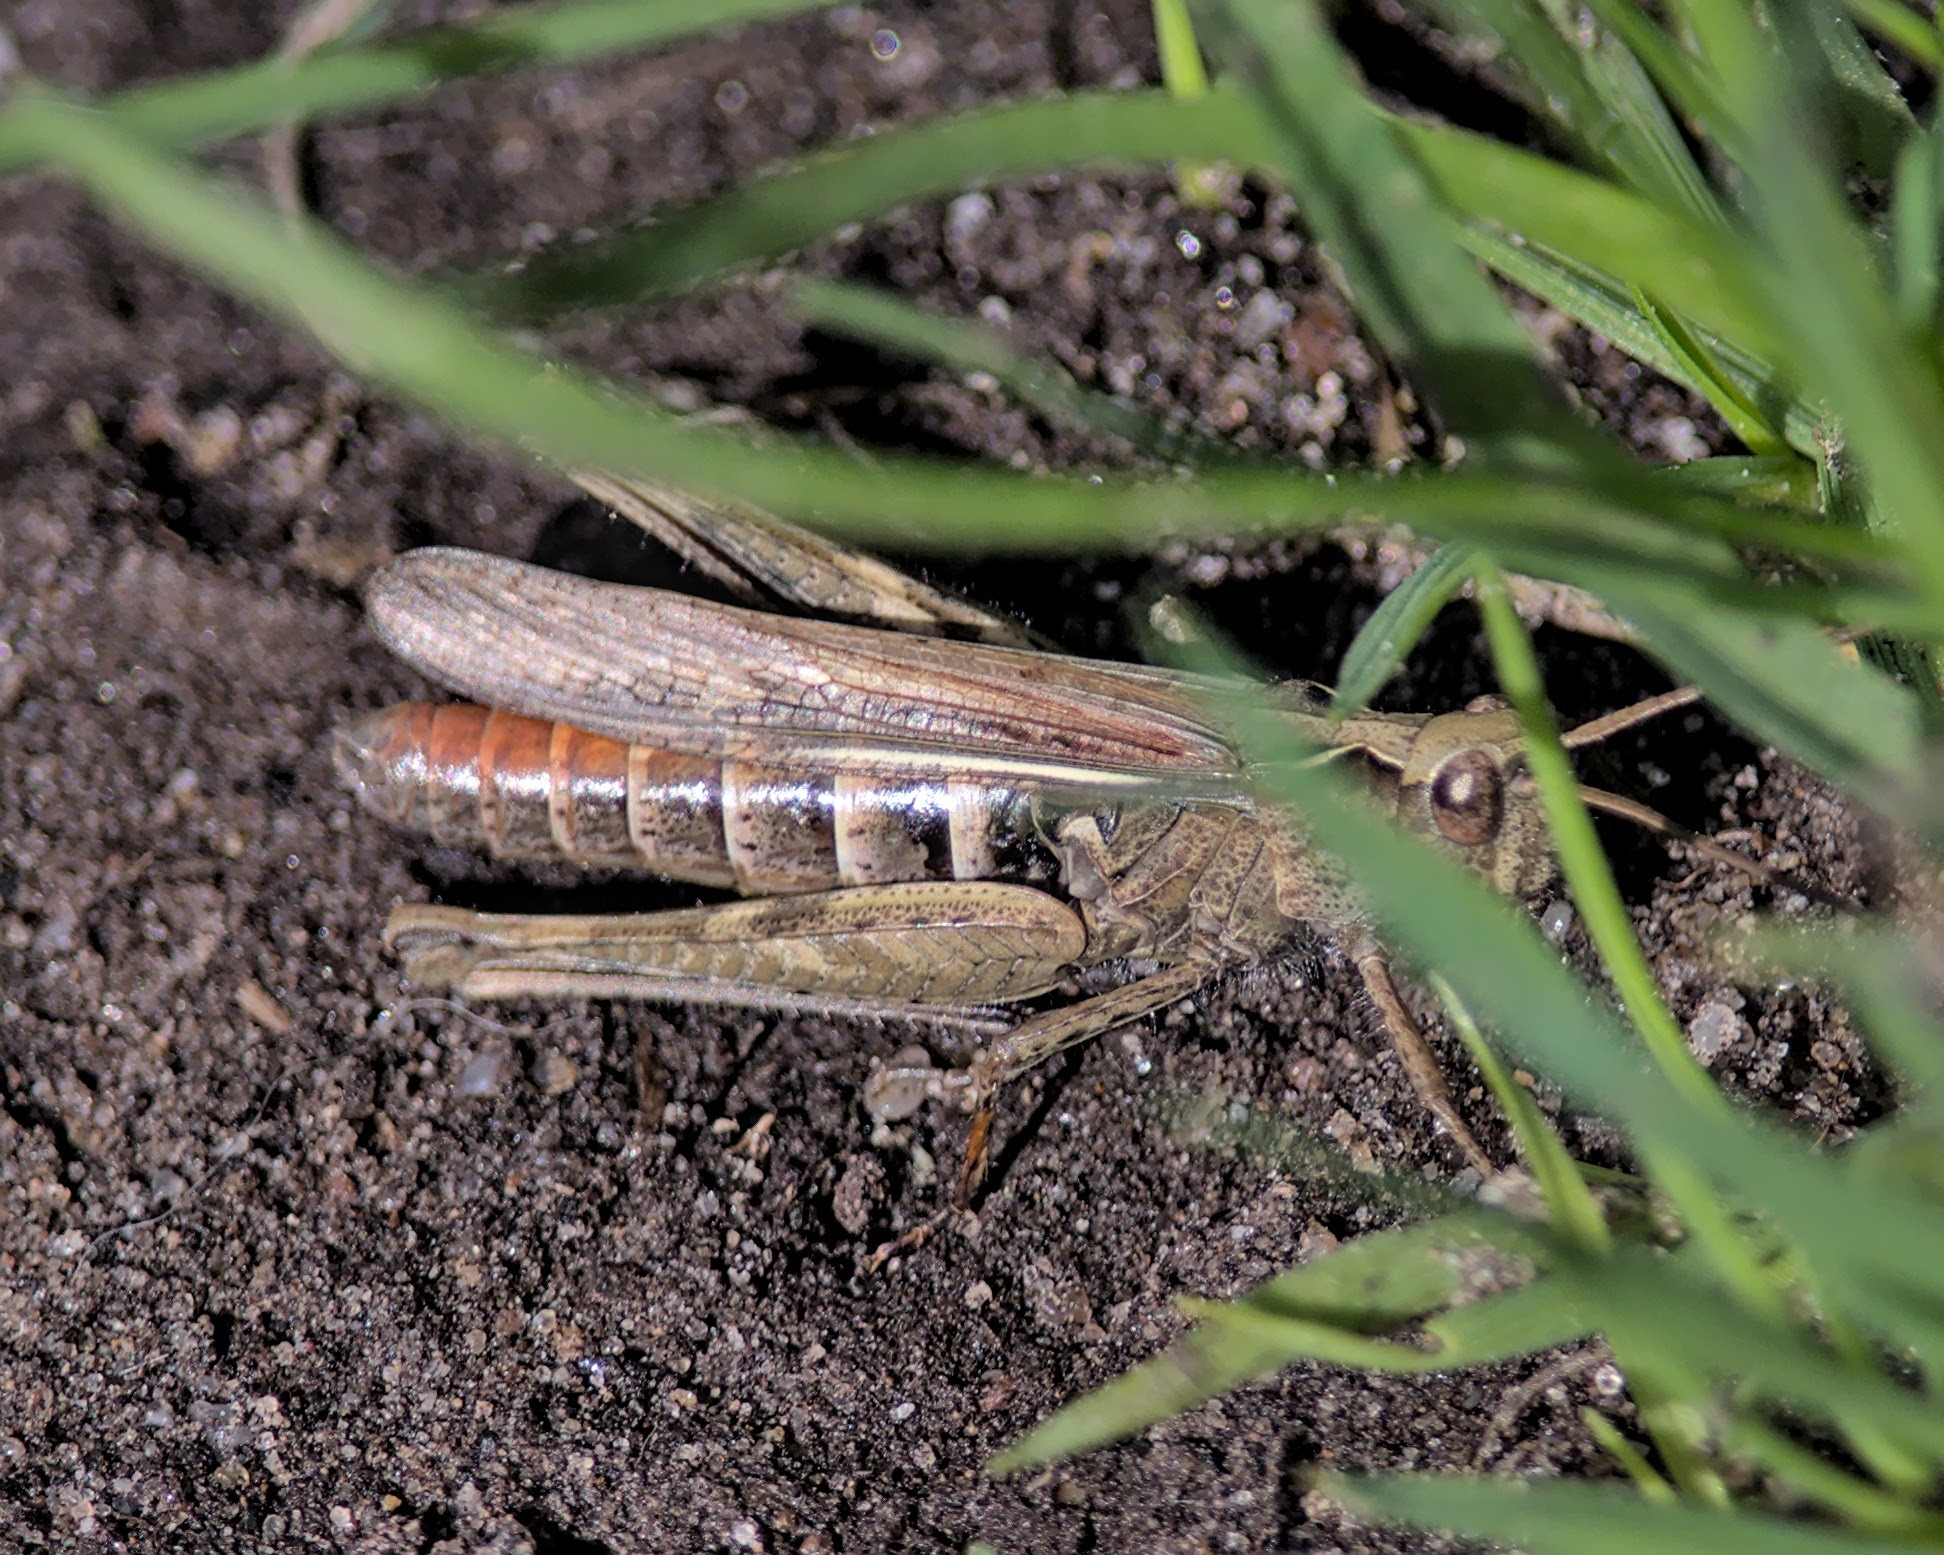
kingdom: Animalia
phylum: Arthropoda
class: Insecta
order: Orthoptera
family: Acrididae
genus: Chorthippus
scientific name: Chorthippus brunneus
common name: Field grasshopper
